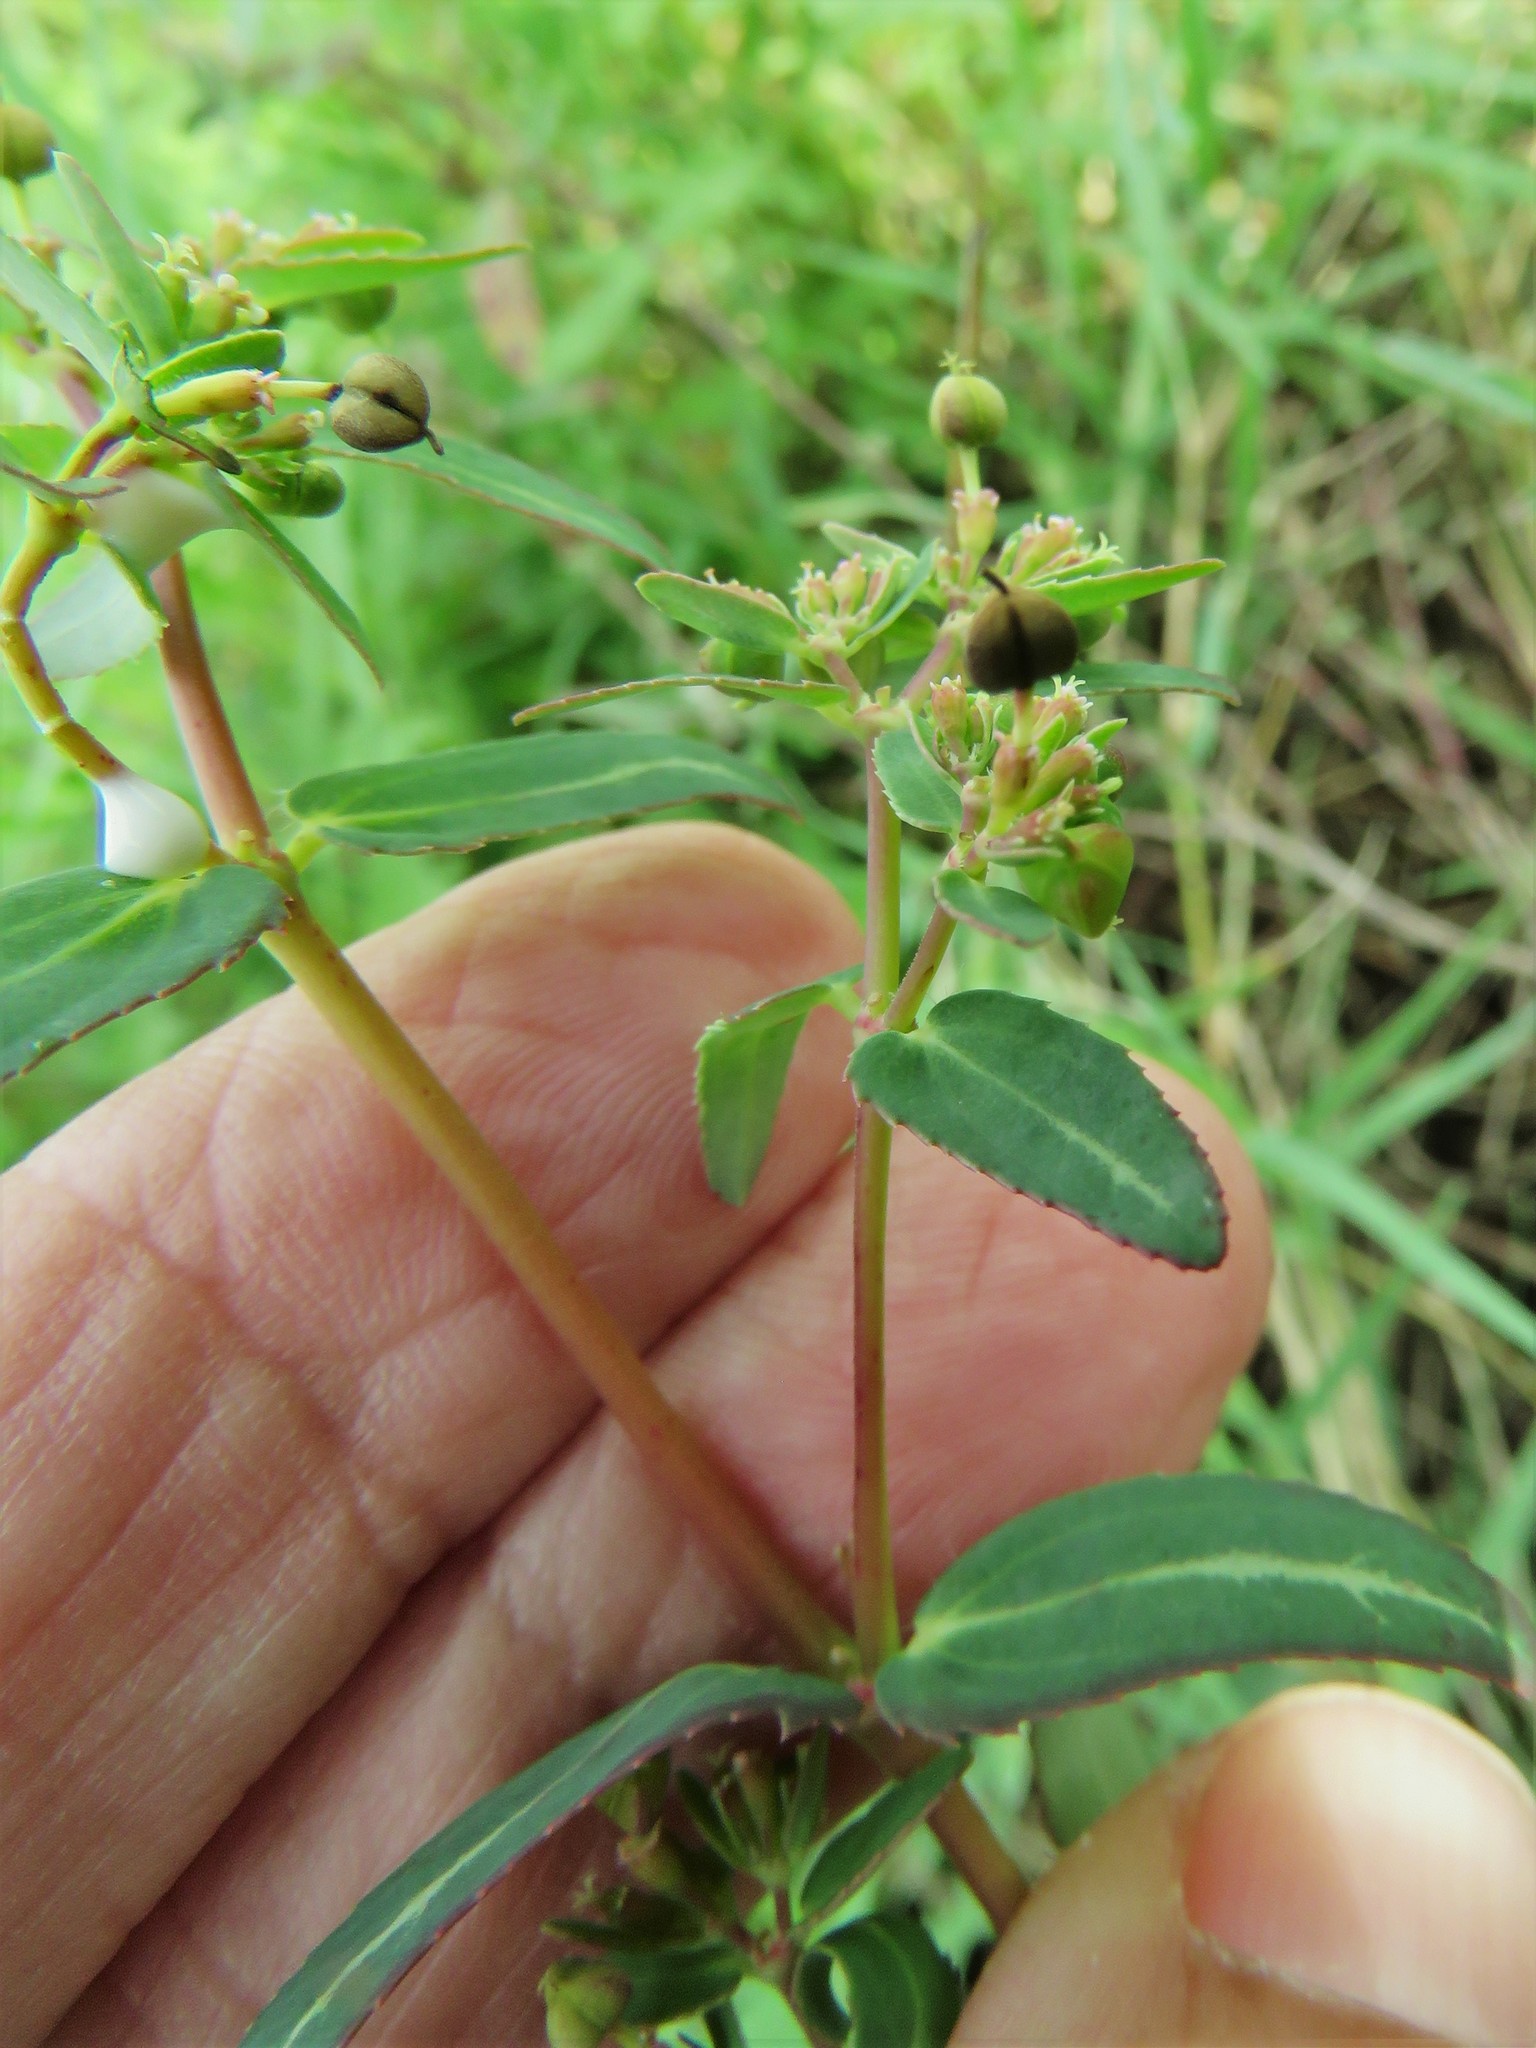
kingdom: Plantae
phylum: Tracheophyta
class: Magnoliopsida
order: Malpighiales
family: Euphorbiaceae
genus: Euphorbia
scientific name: Euphorbia nutans
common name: Eyebane
